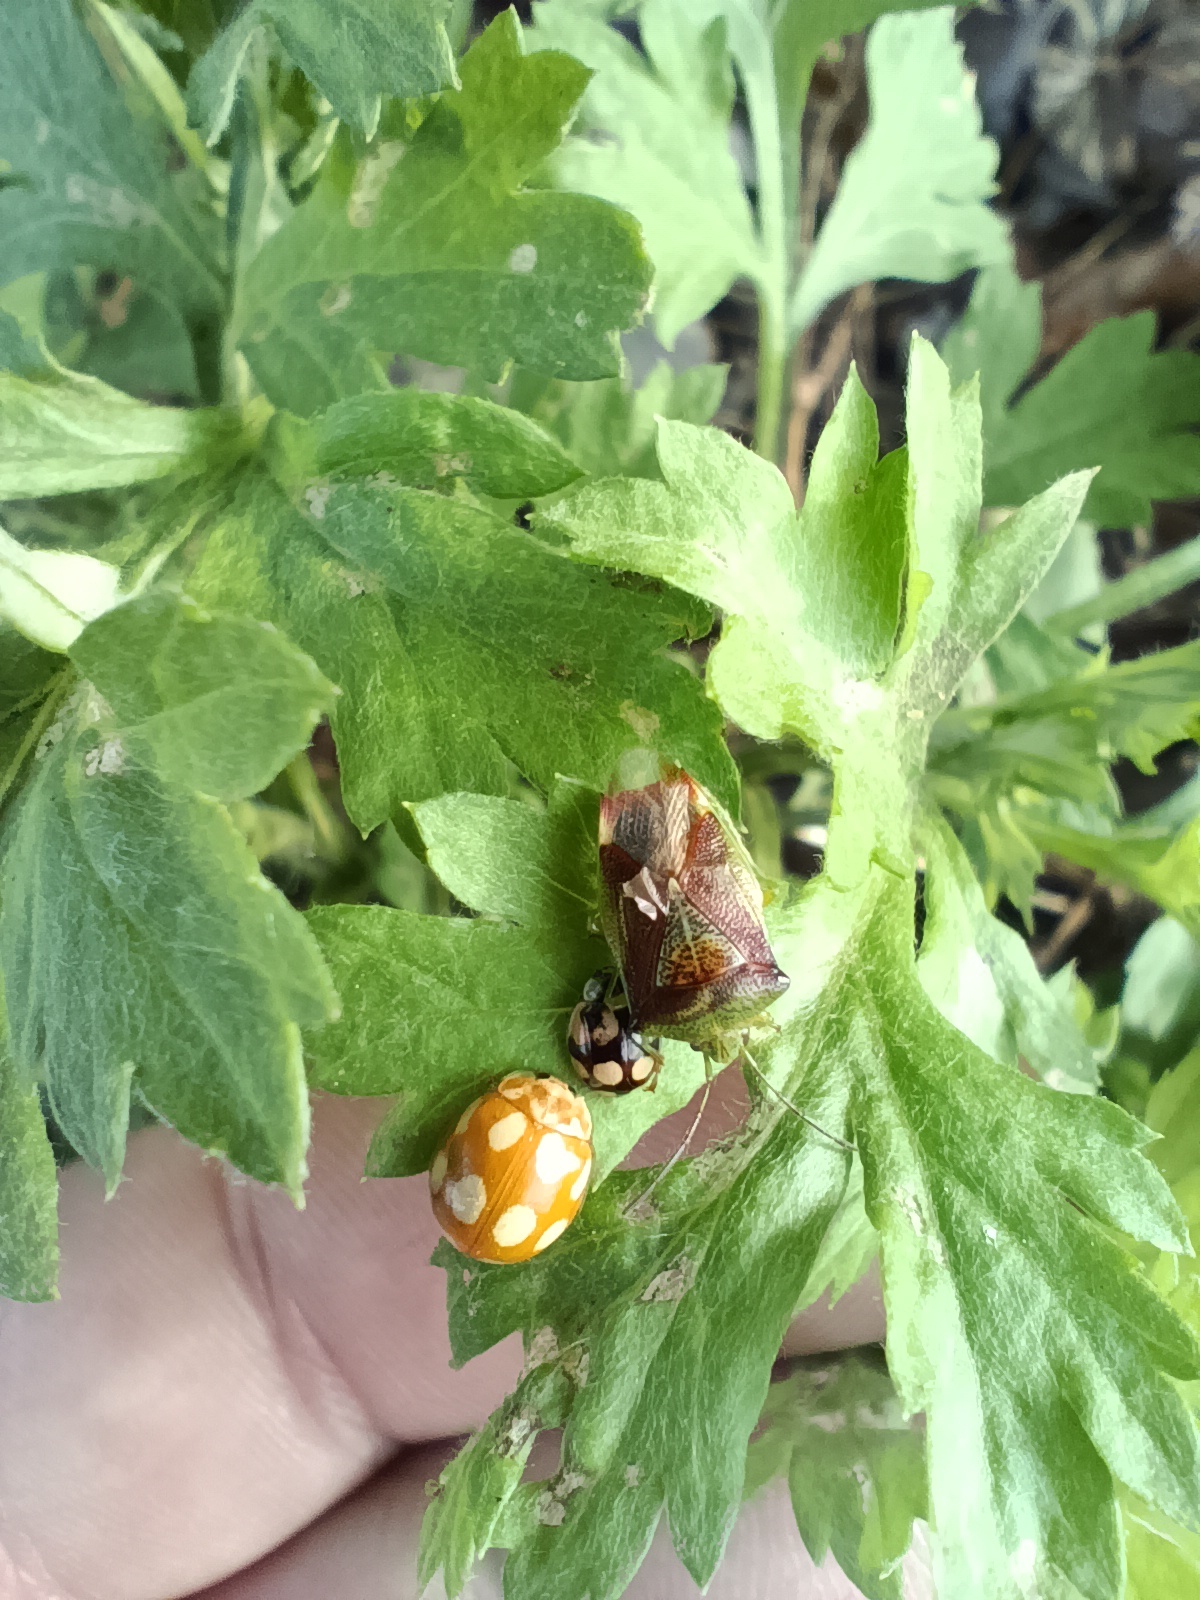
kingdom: Animalia
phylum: Arthropoda
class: Insecta
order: Coleoptera
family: Coccinellidae
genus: Adalia
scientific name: Adalia decempunctata
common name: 10-spot ladybird
